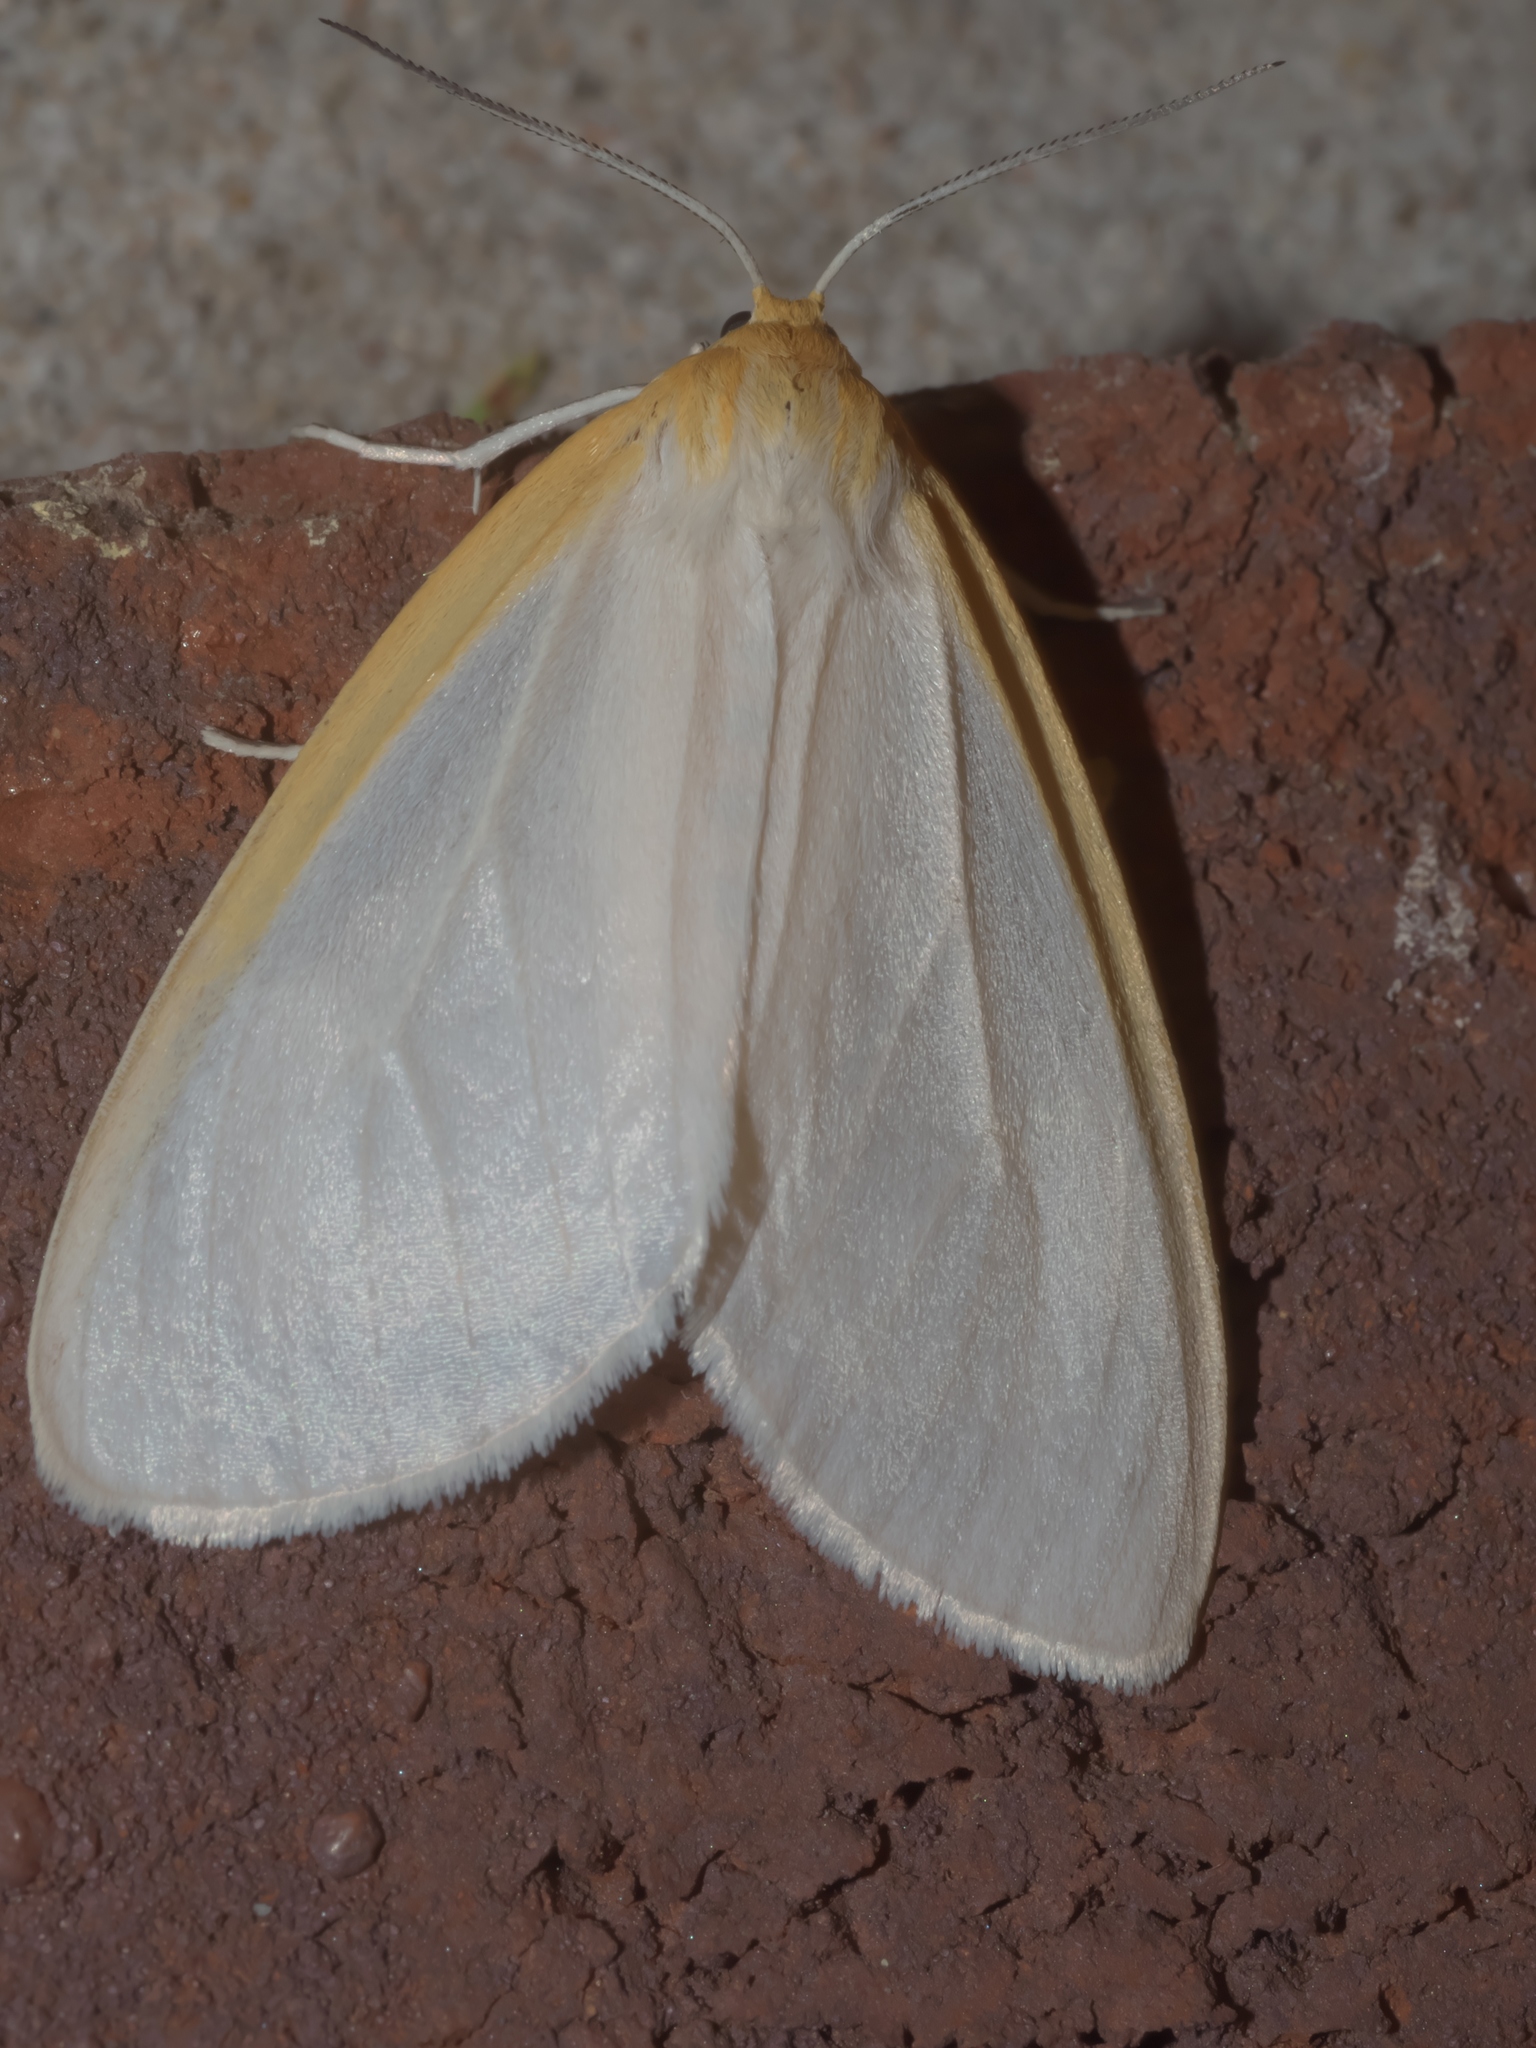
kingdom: Animalia
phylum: Arthropoda
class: Insecta
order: Lepidoptera
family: Erebidae
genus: Cycnia
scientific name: Cycnia tenera
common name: Delicate cycnia moth
